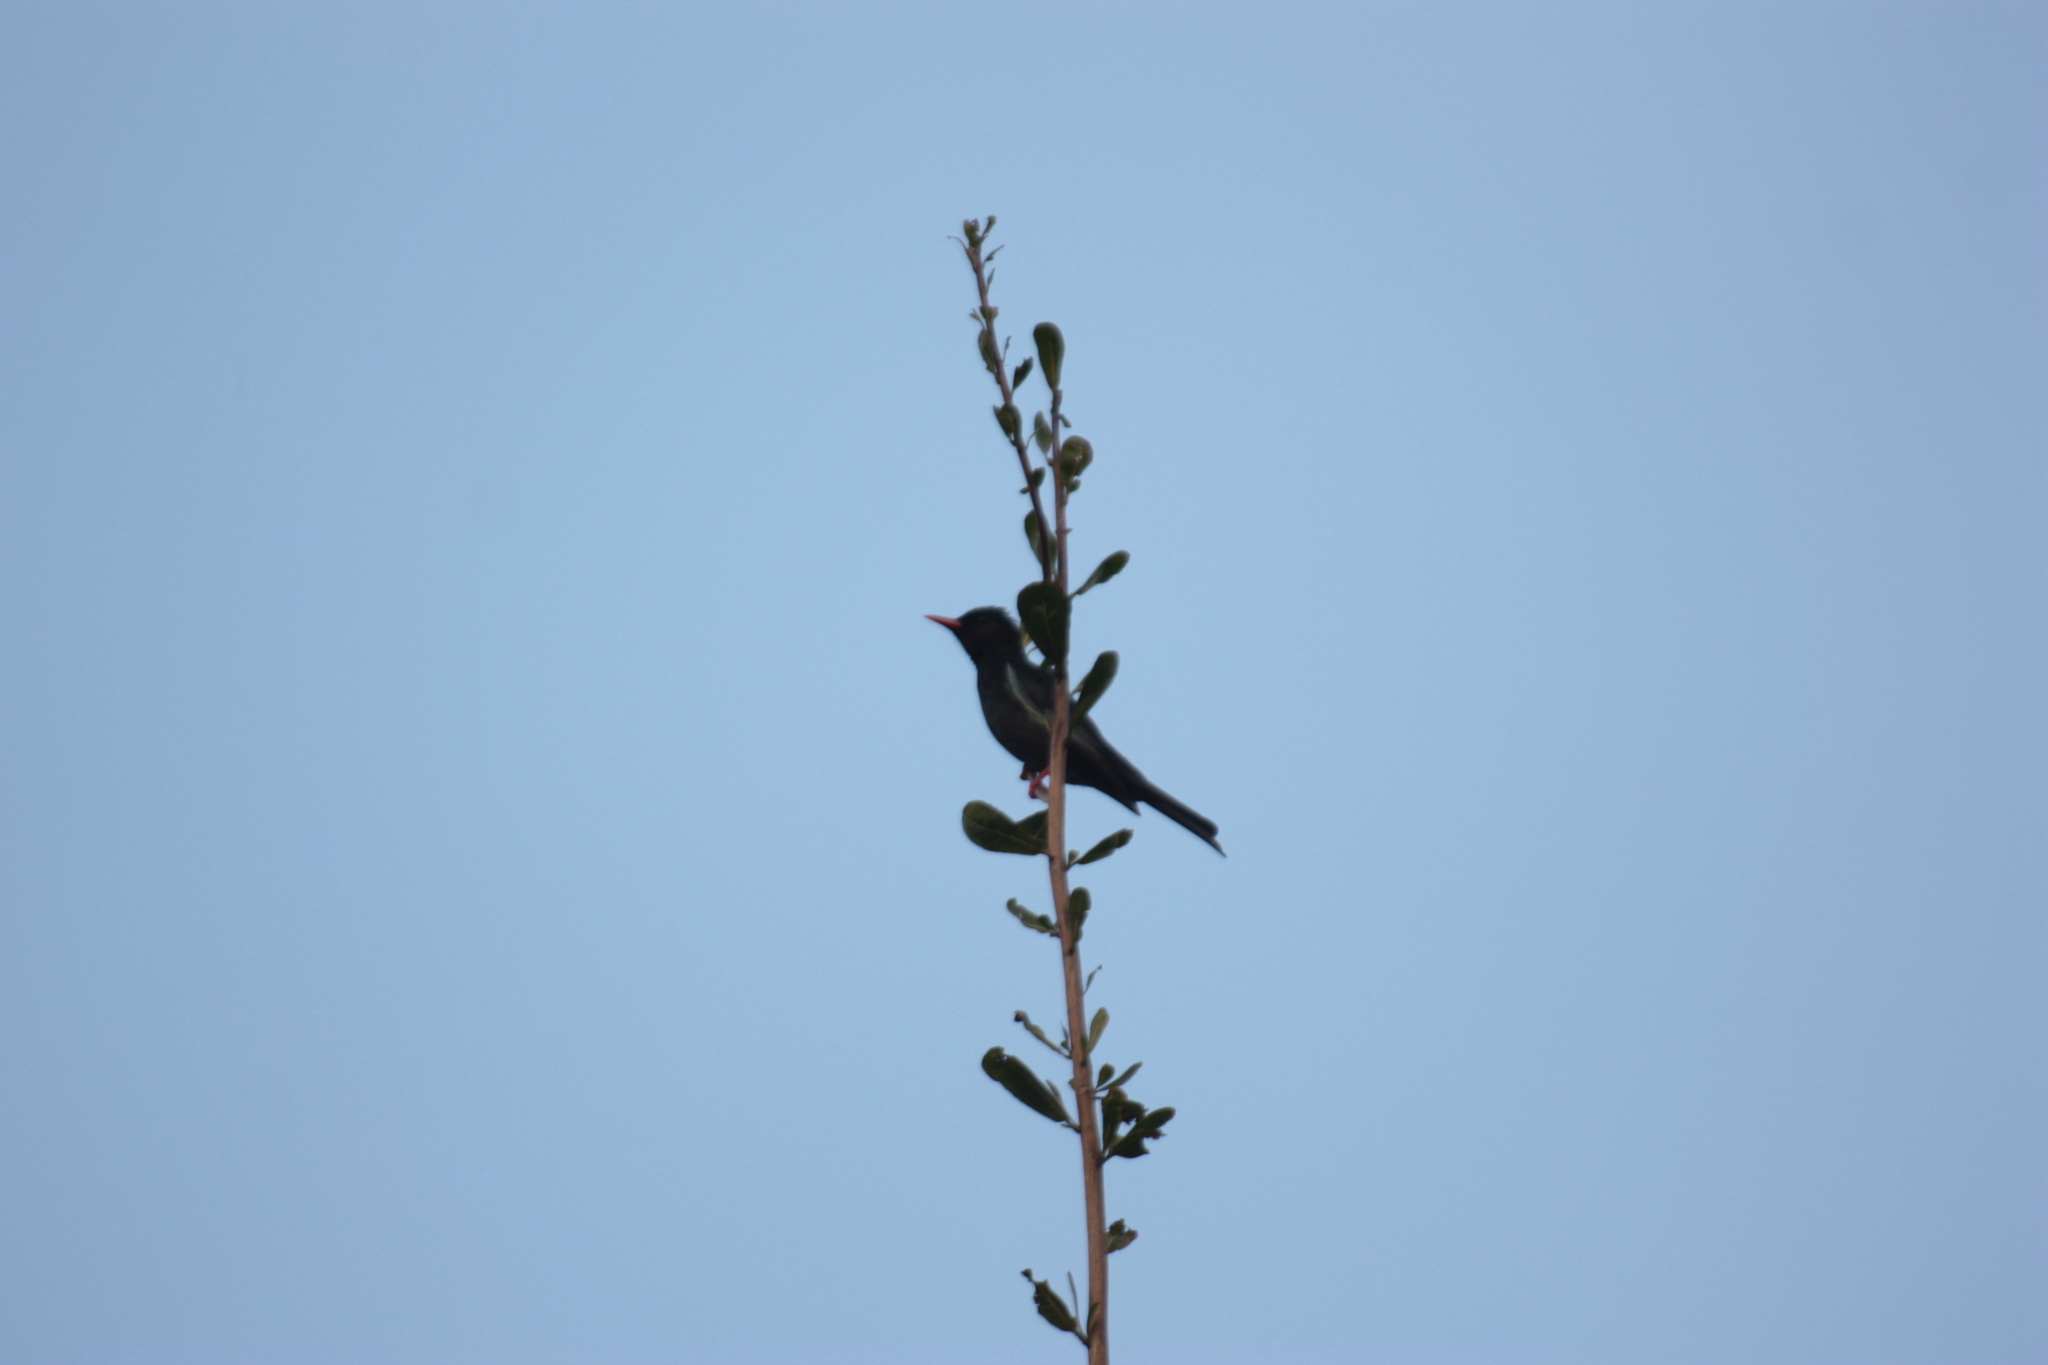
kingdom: Animalia
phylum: Chordata
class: Aves
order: Passeriformes
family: Pycnonotidae
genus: Hypsipetes
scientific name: Hypsipetes leucocephalus
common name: Black bulbul
